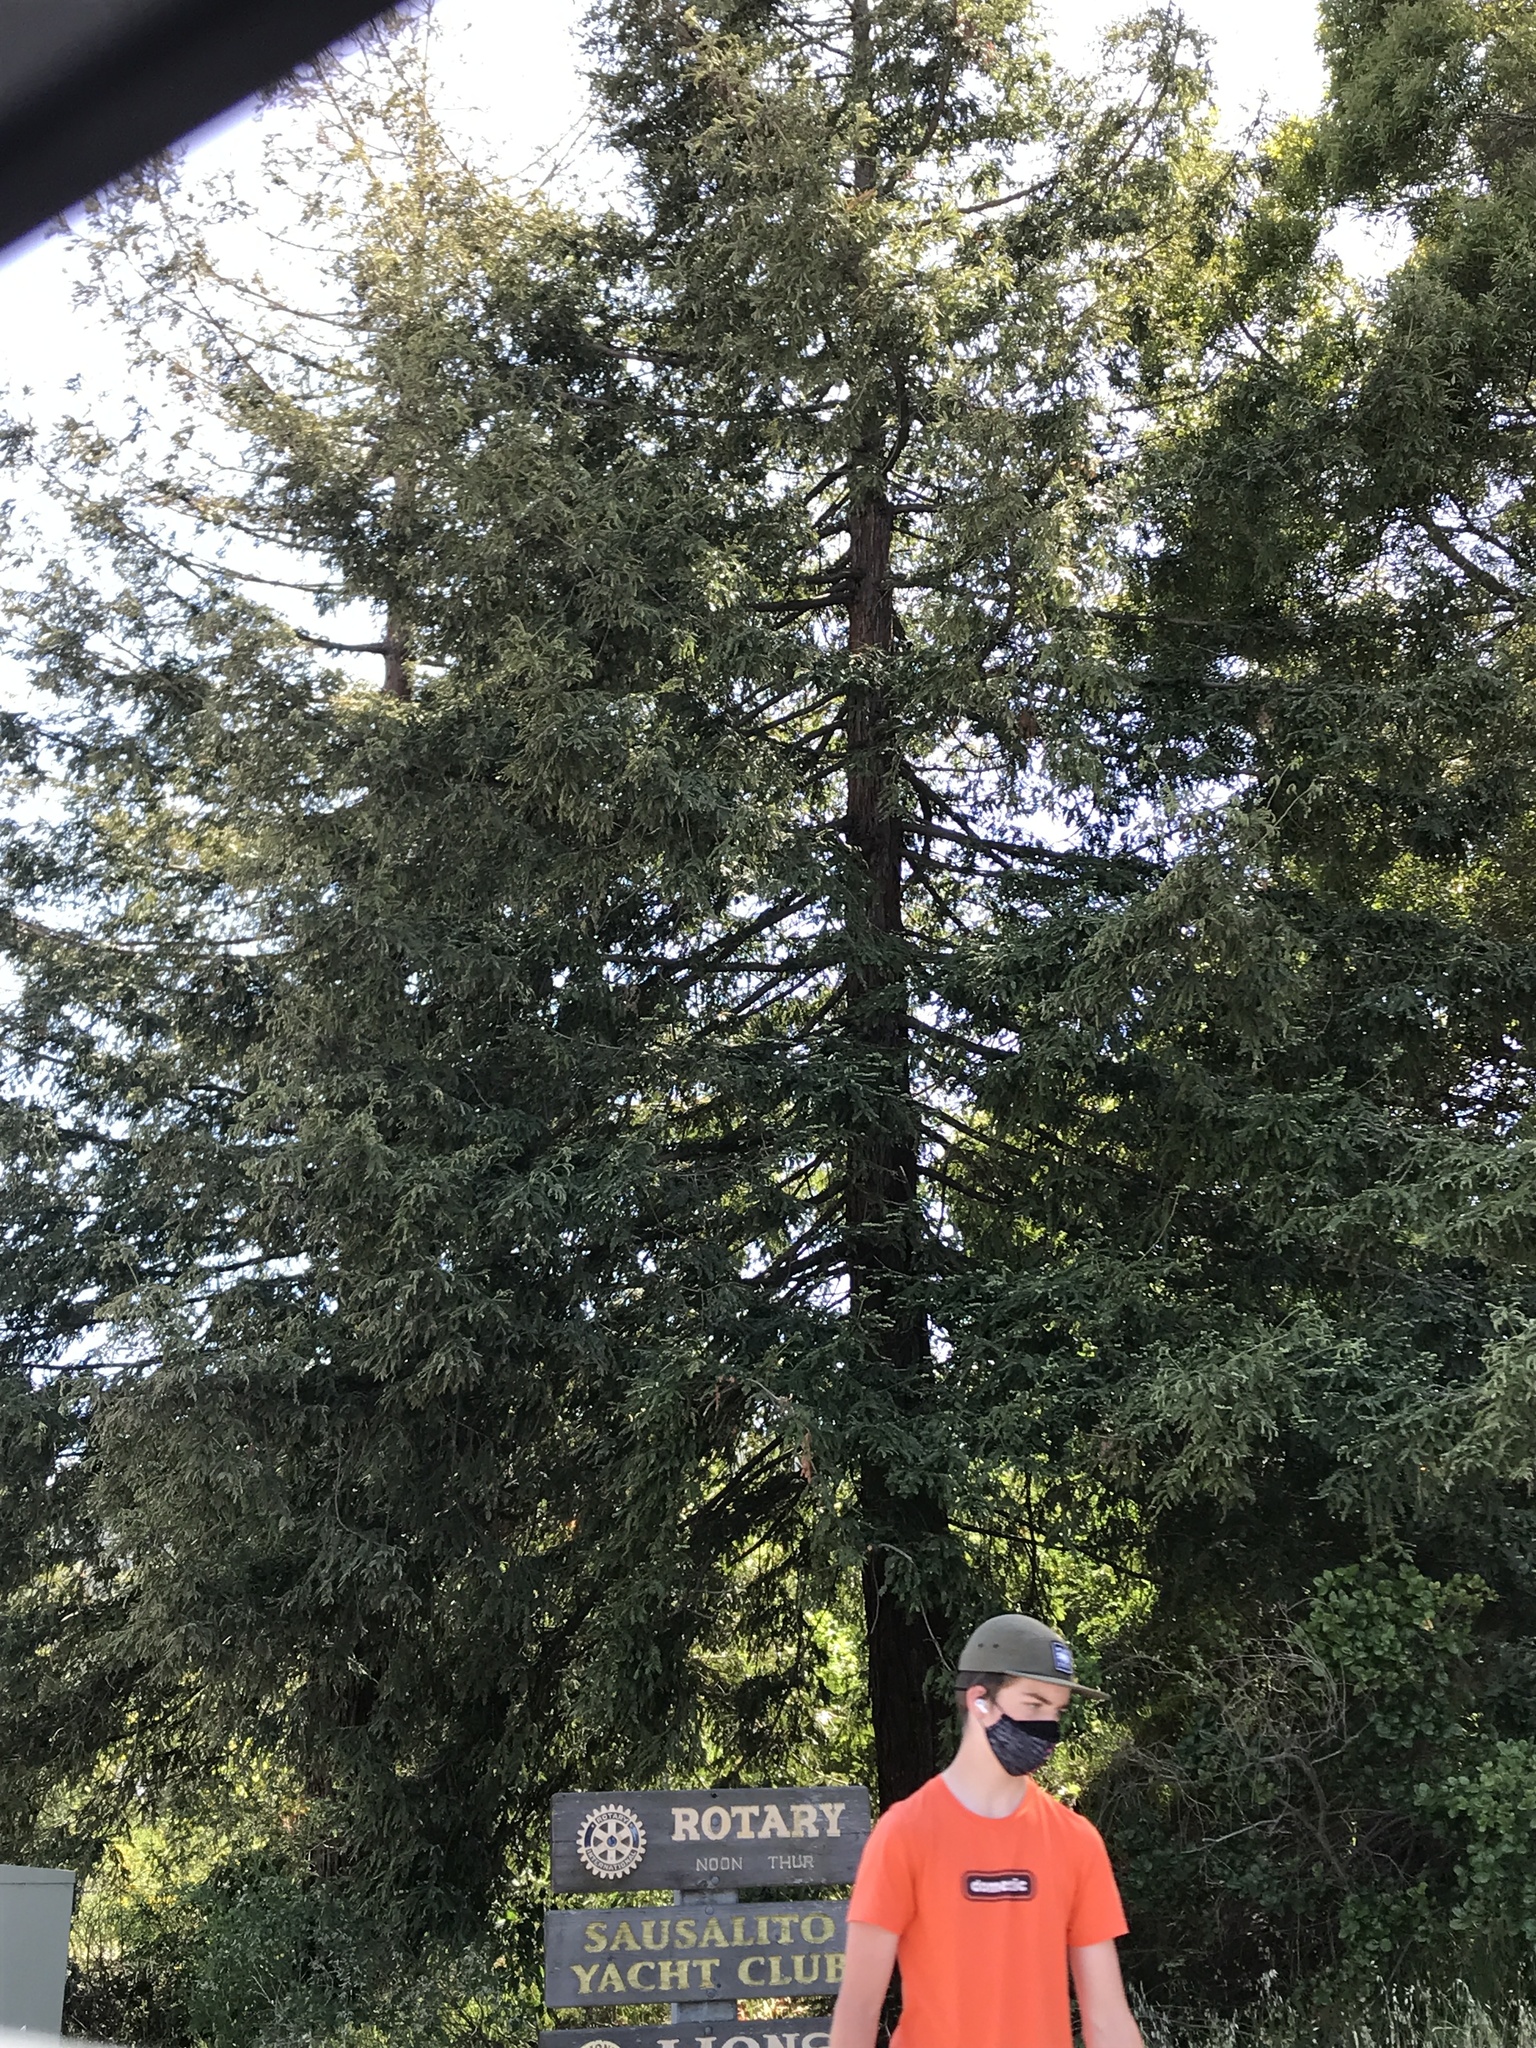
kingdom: Plantae
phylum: Tracheophyta
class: Pinopsida
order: Pinales
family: Cupressaceae
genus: Sequoia
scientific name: Sequoia sempervirens
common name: Coast redwood
